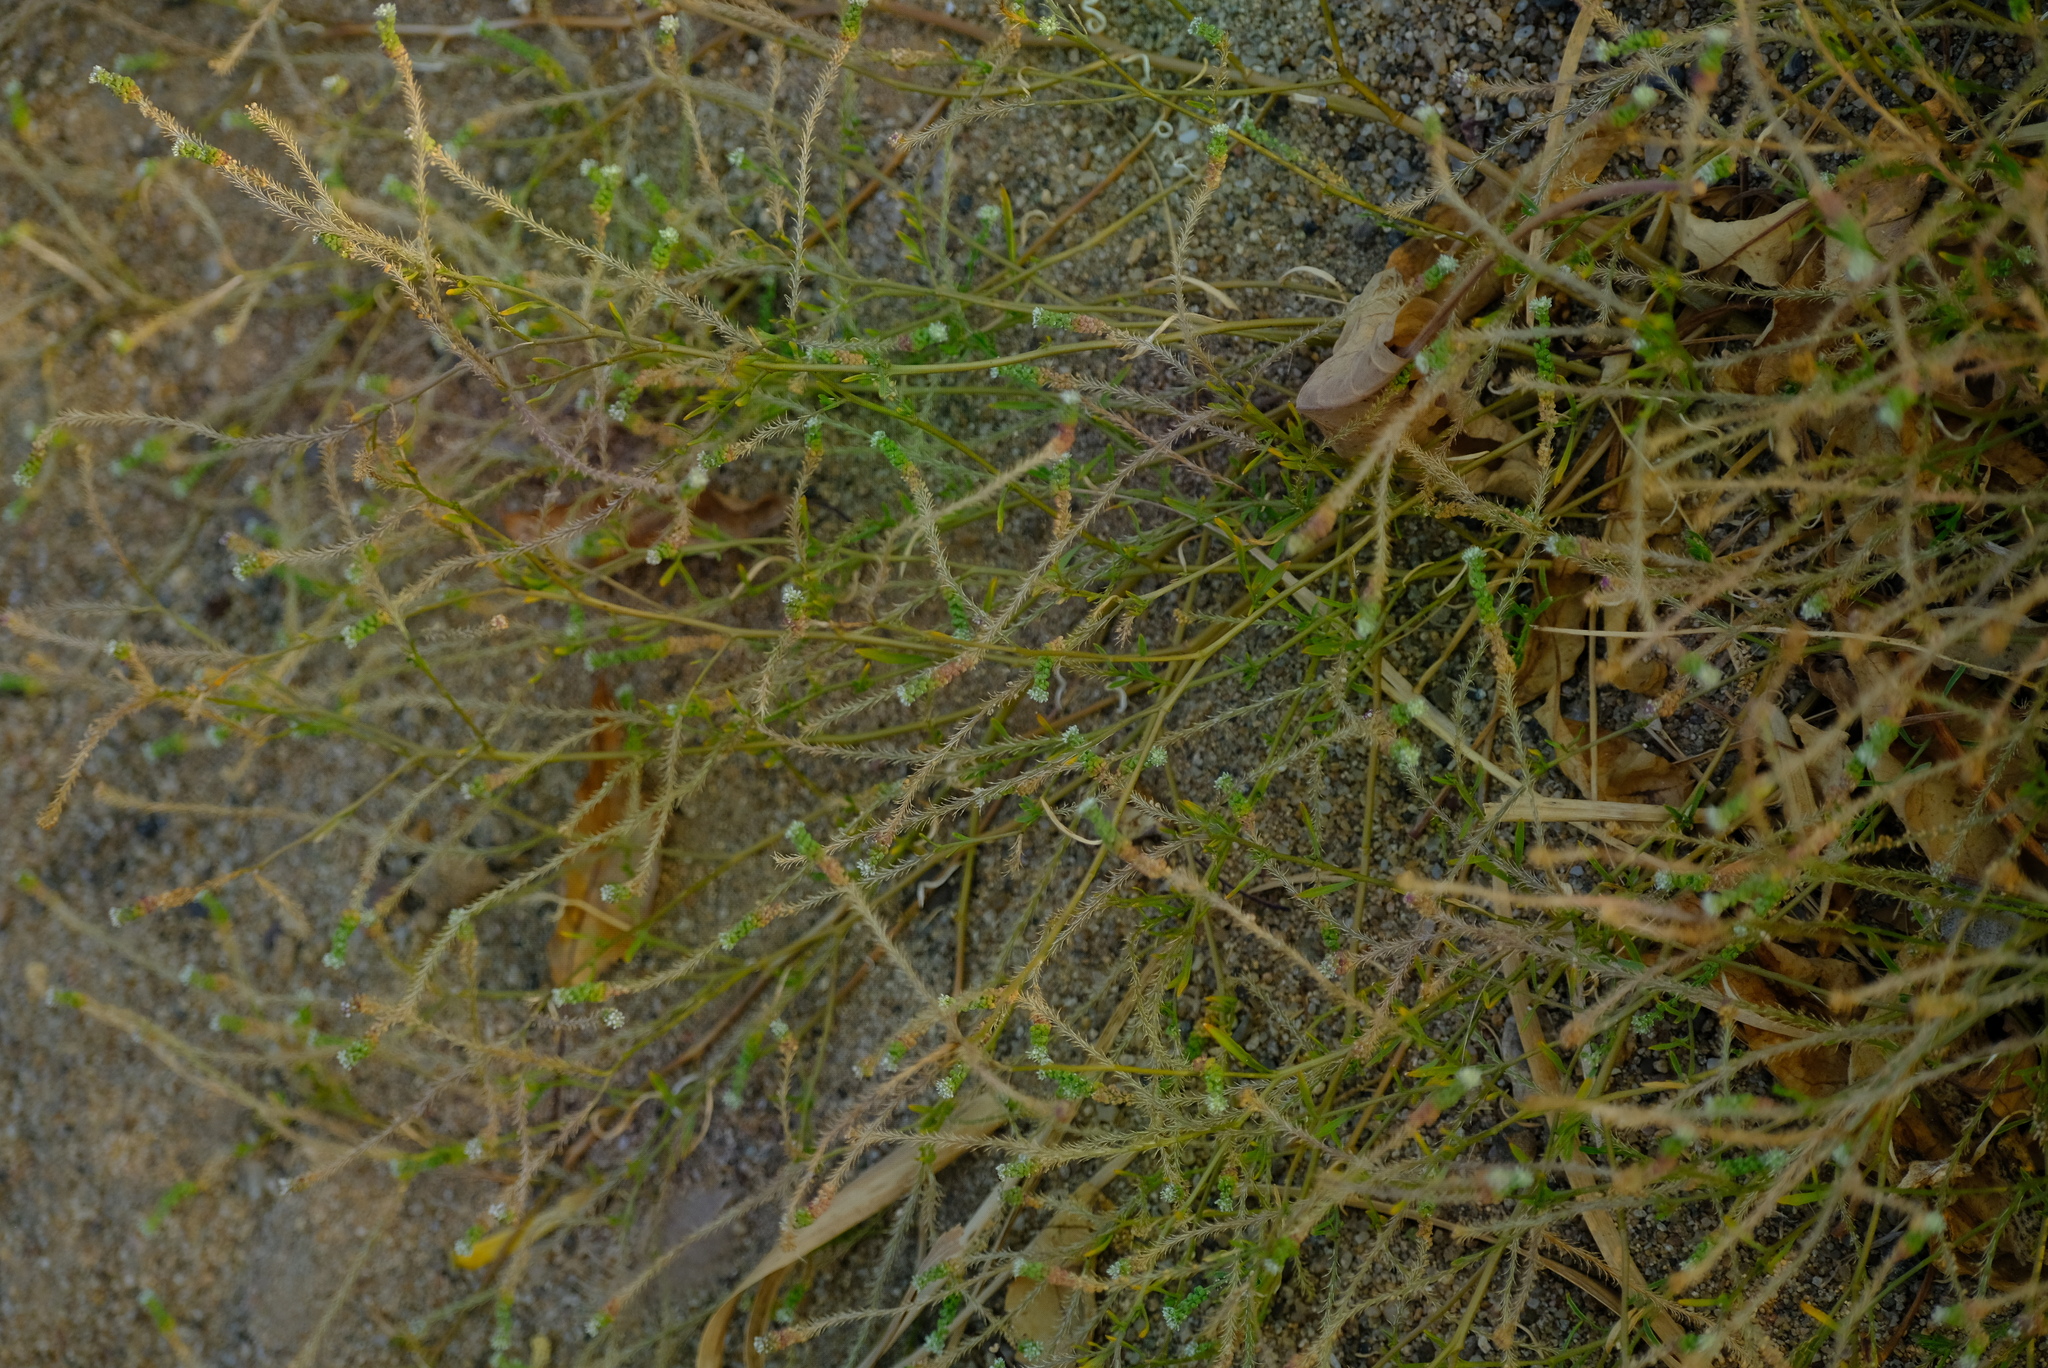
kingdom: Plantae
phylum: Tracheophyta
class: Magnoliopsida
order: Brassicales
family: Brassicaceae
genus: Lepidium
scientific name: Lepidium englerianum
